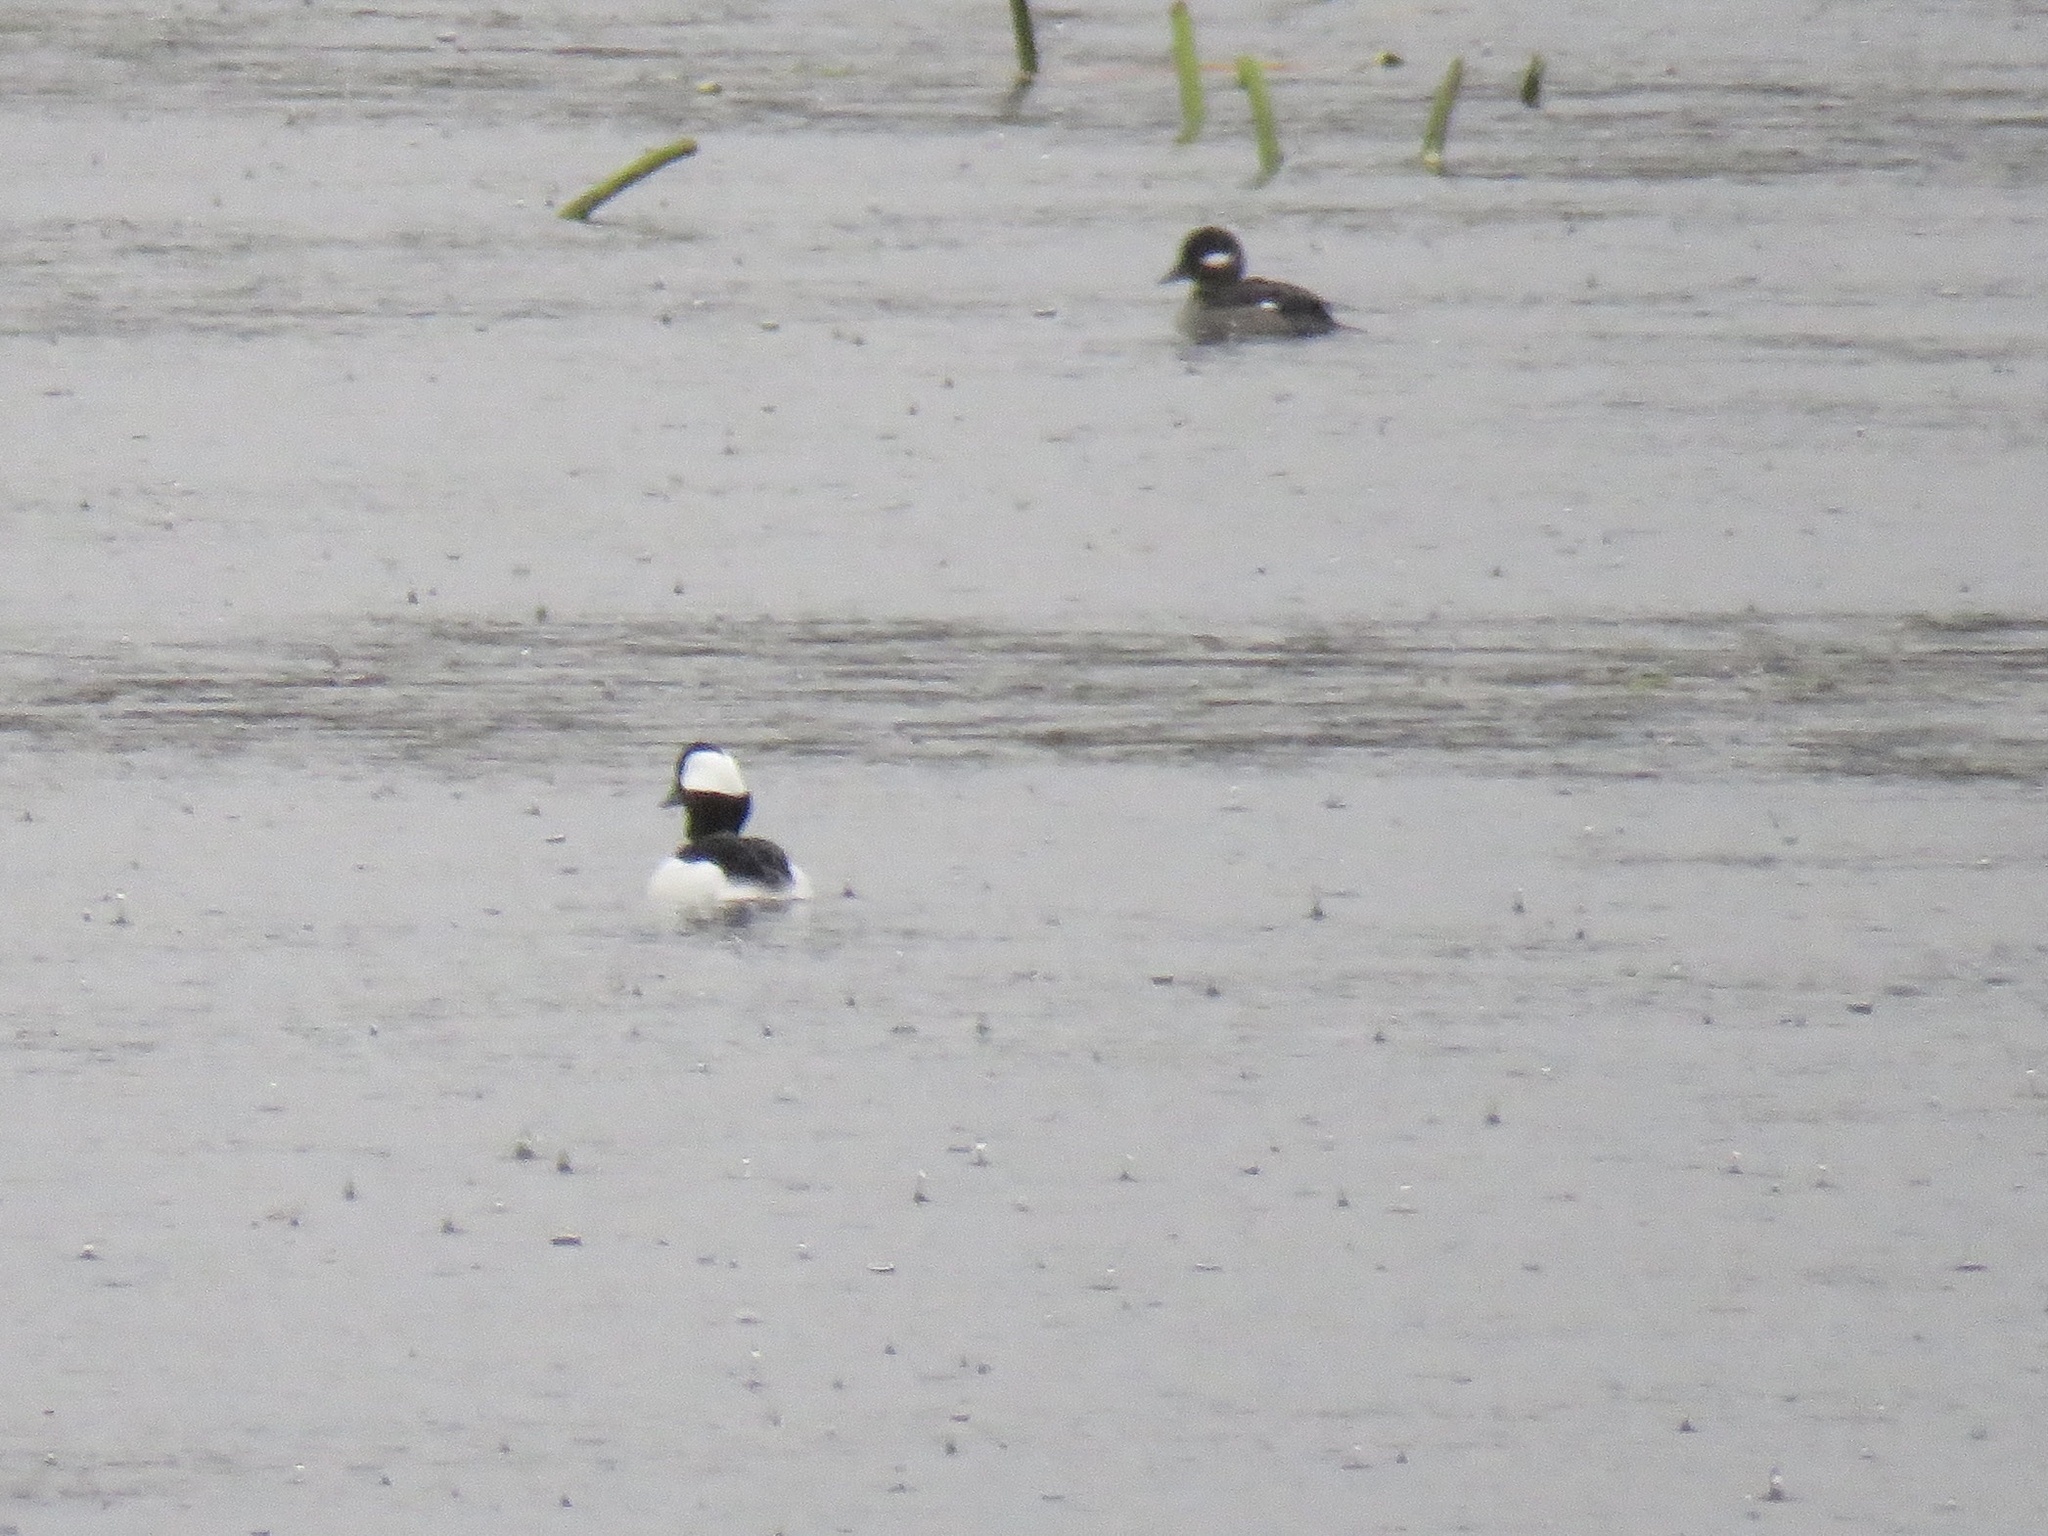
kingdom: Animalia
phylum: Chordata
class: Aves
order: Anseriformes
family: Anatidae
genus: Bucephala
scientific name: Bucephala albeola
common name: Bufflehead
